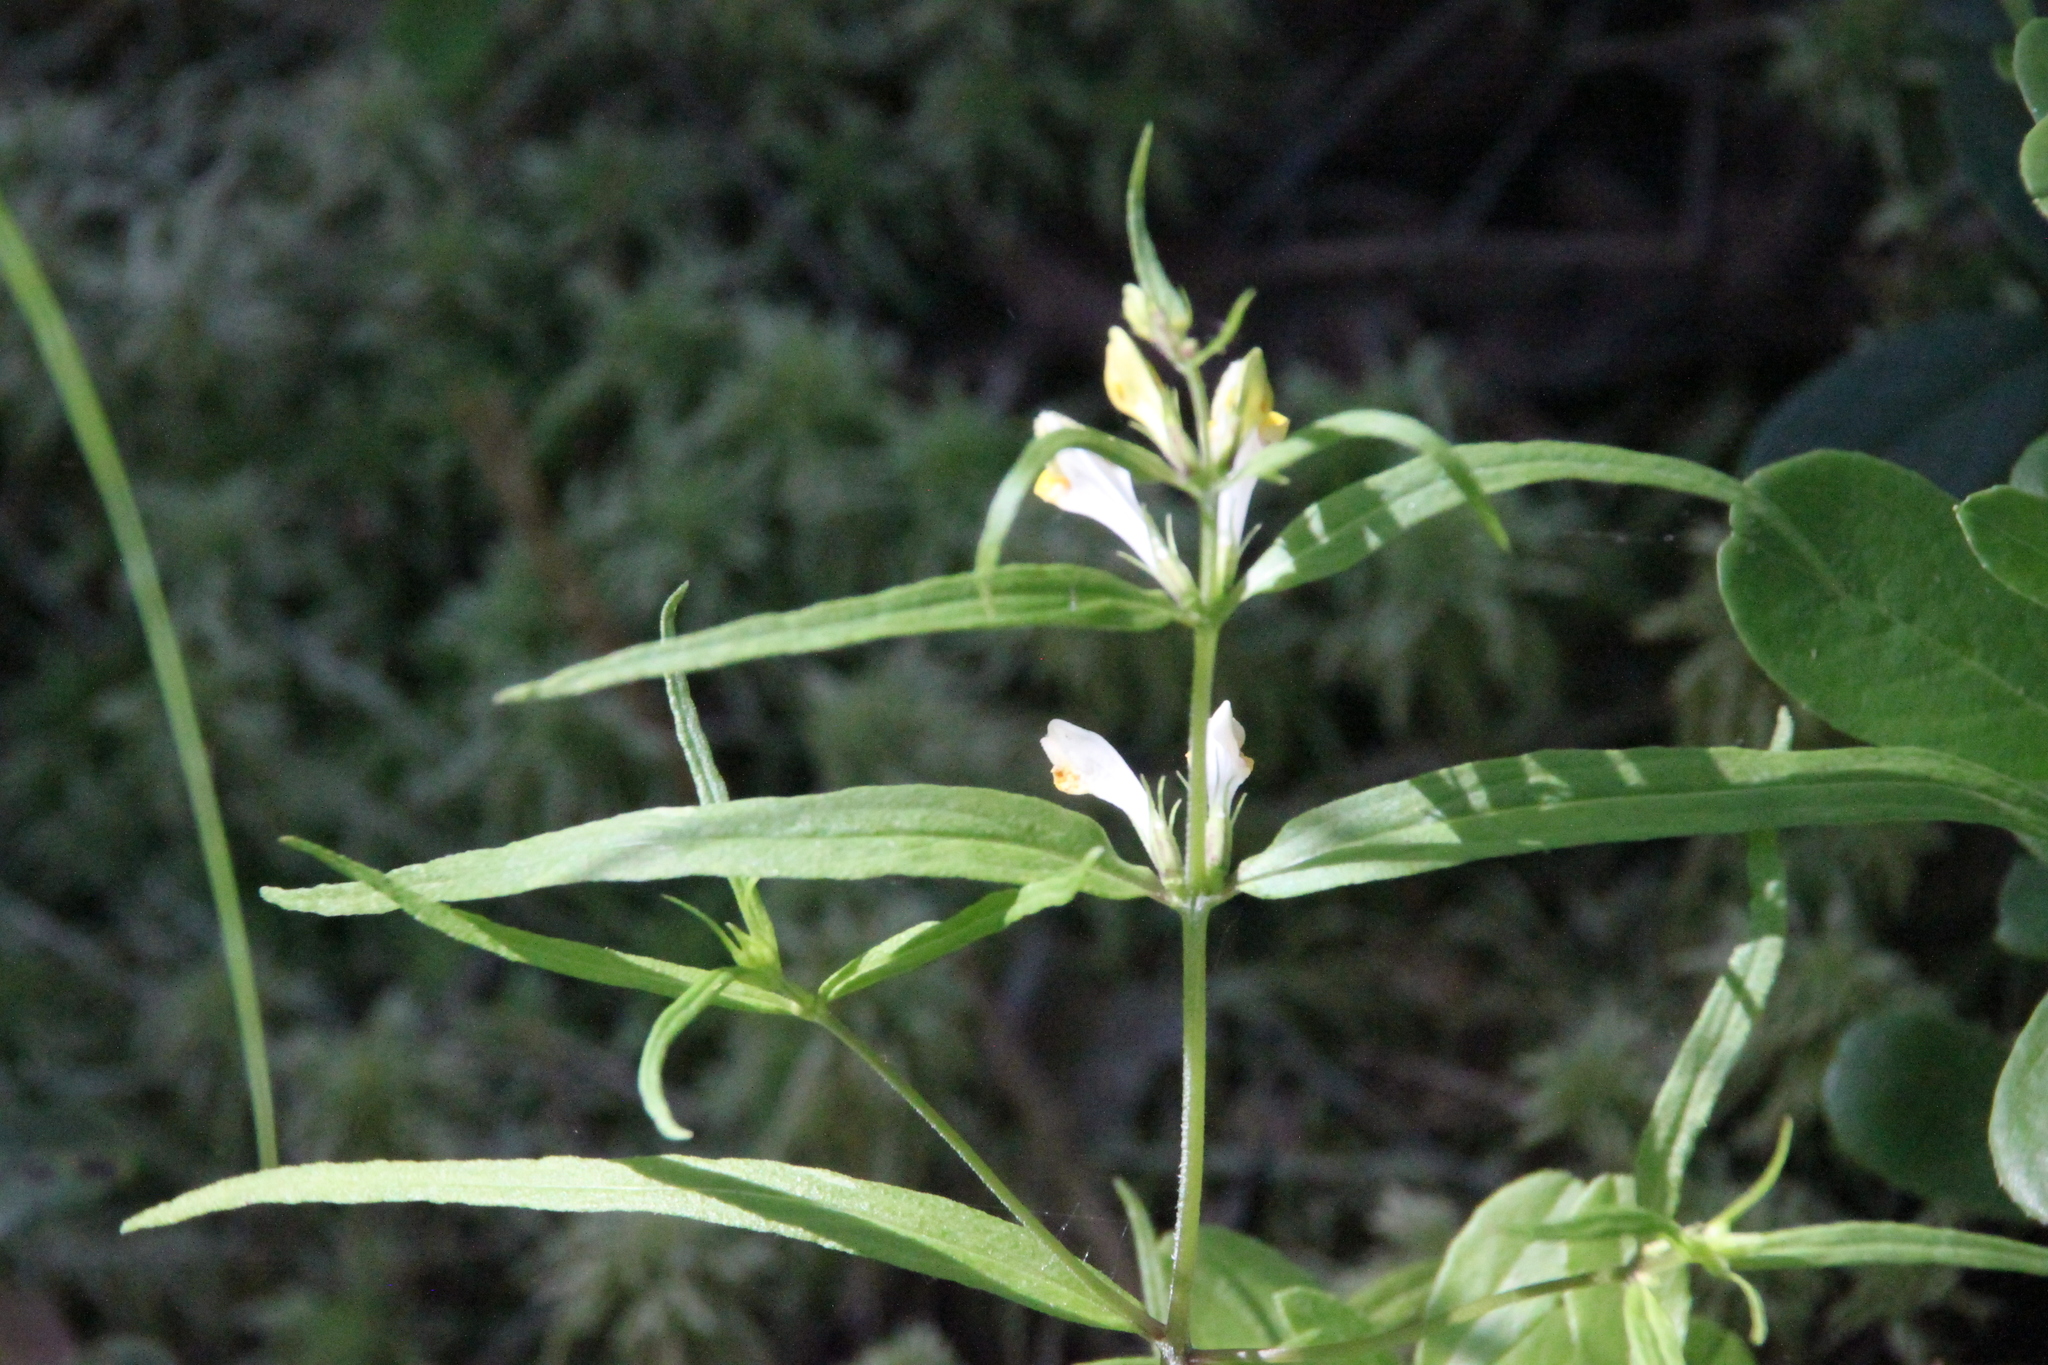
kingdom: Plantae
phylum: Tracheophyta
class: Magnoliopsida
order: Lamiales
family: Orobanchaceae
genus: Melampyrum
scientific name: Melampyrum pratense
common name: Common cow-wheat
